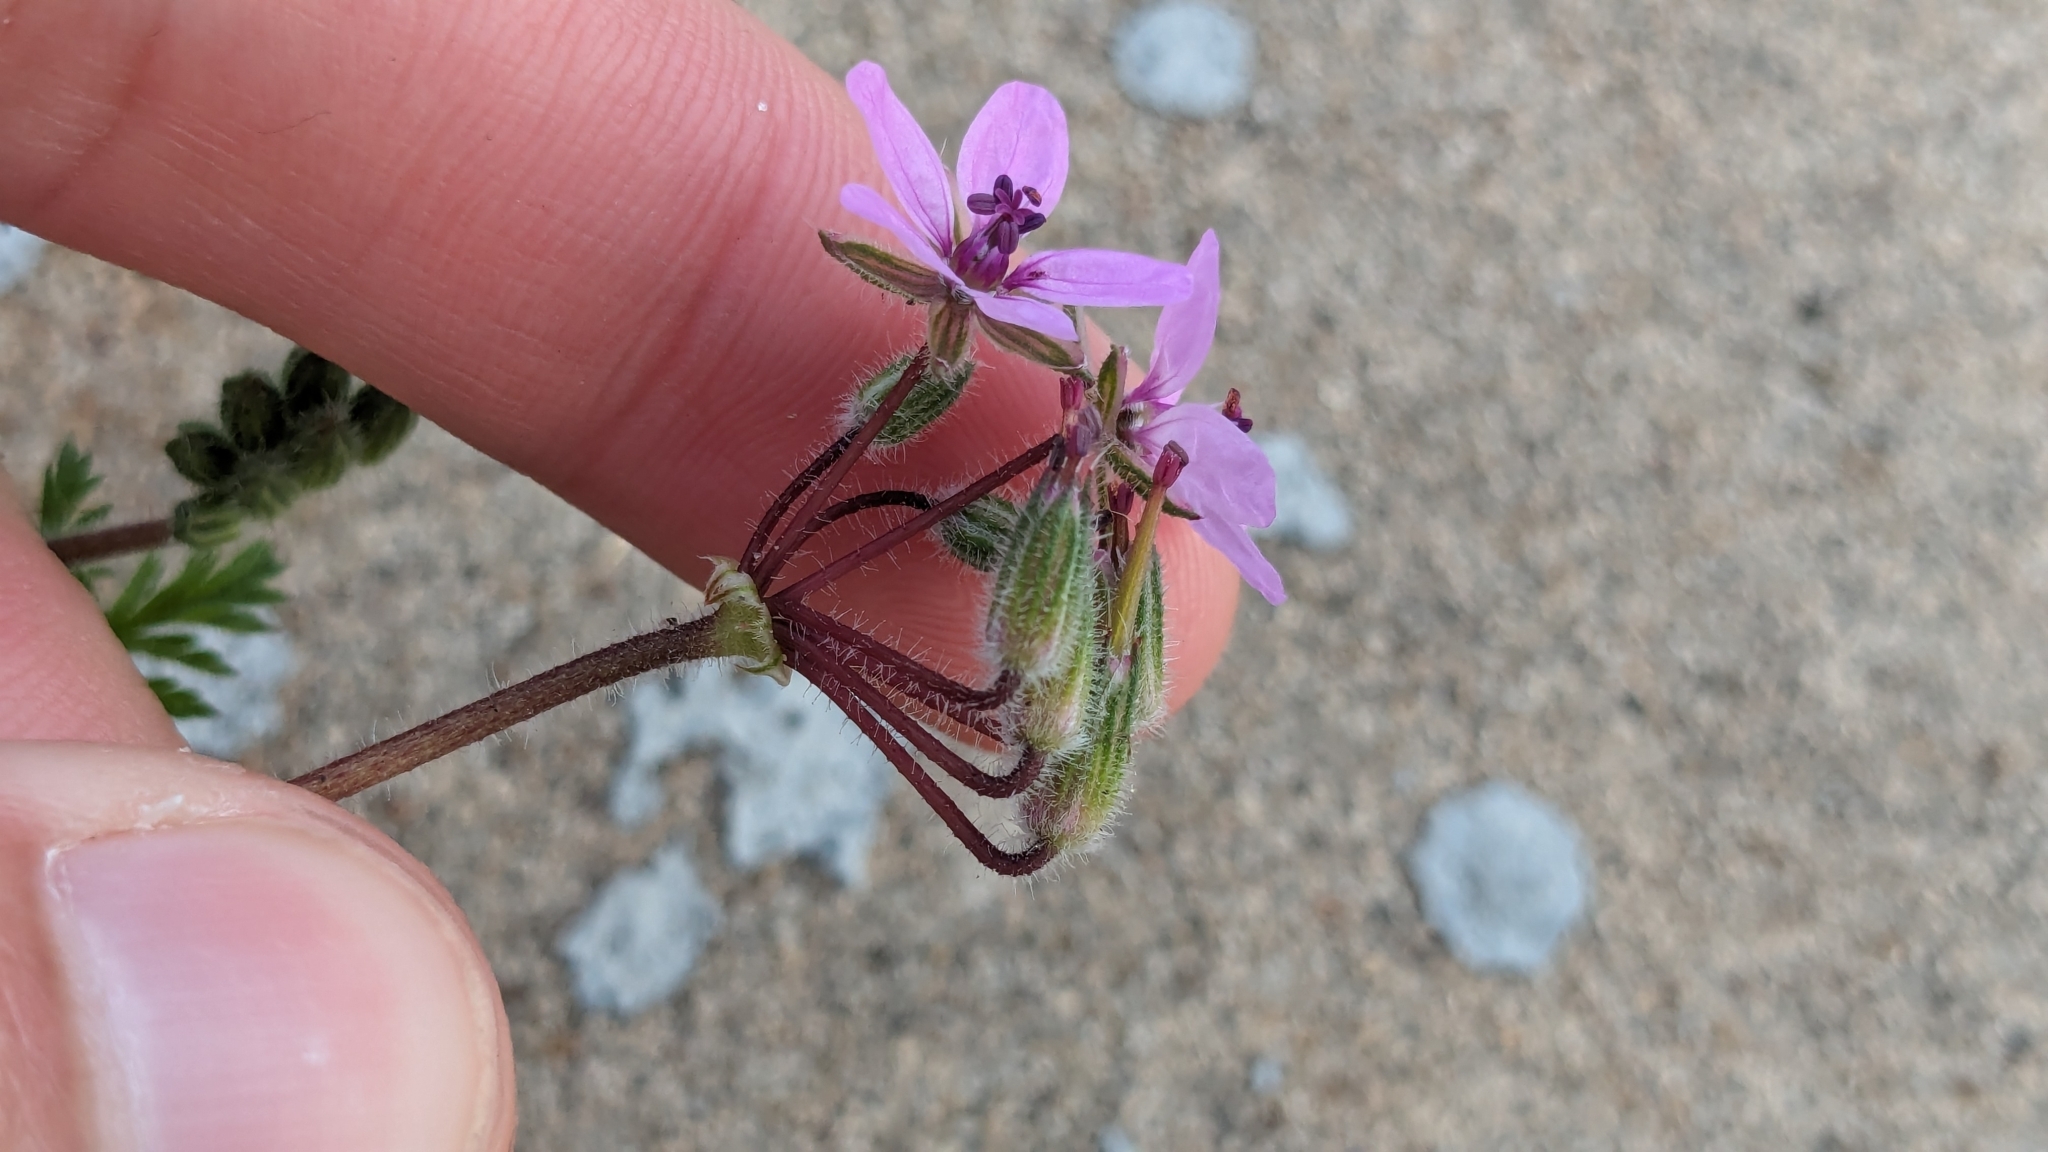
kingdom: Plantae
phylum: Tracheophyta
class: Magnoliopsida
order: Geraniales
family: Geraniaceae
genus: Erodium
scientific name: Erodium cicutarium
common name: Common stork's-bill
